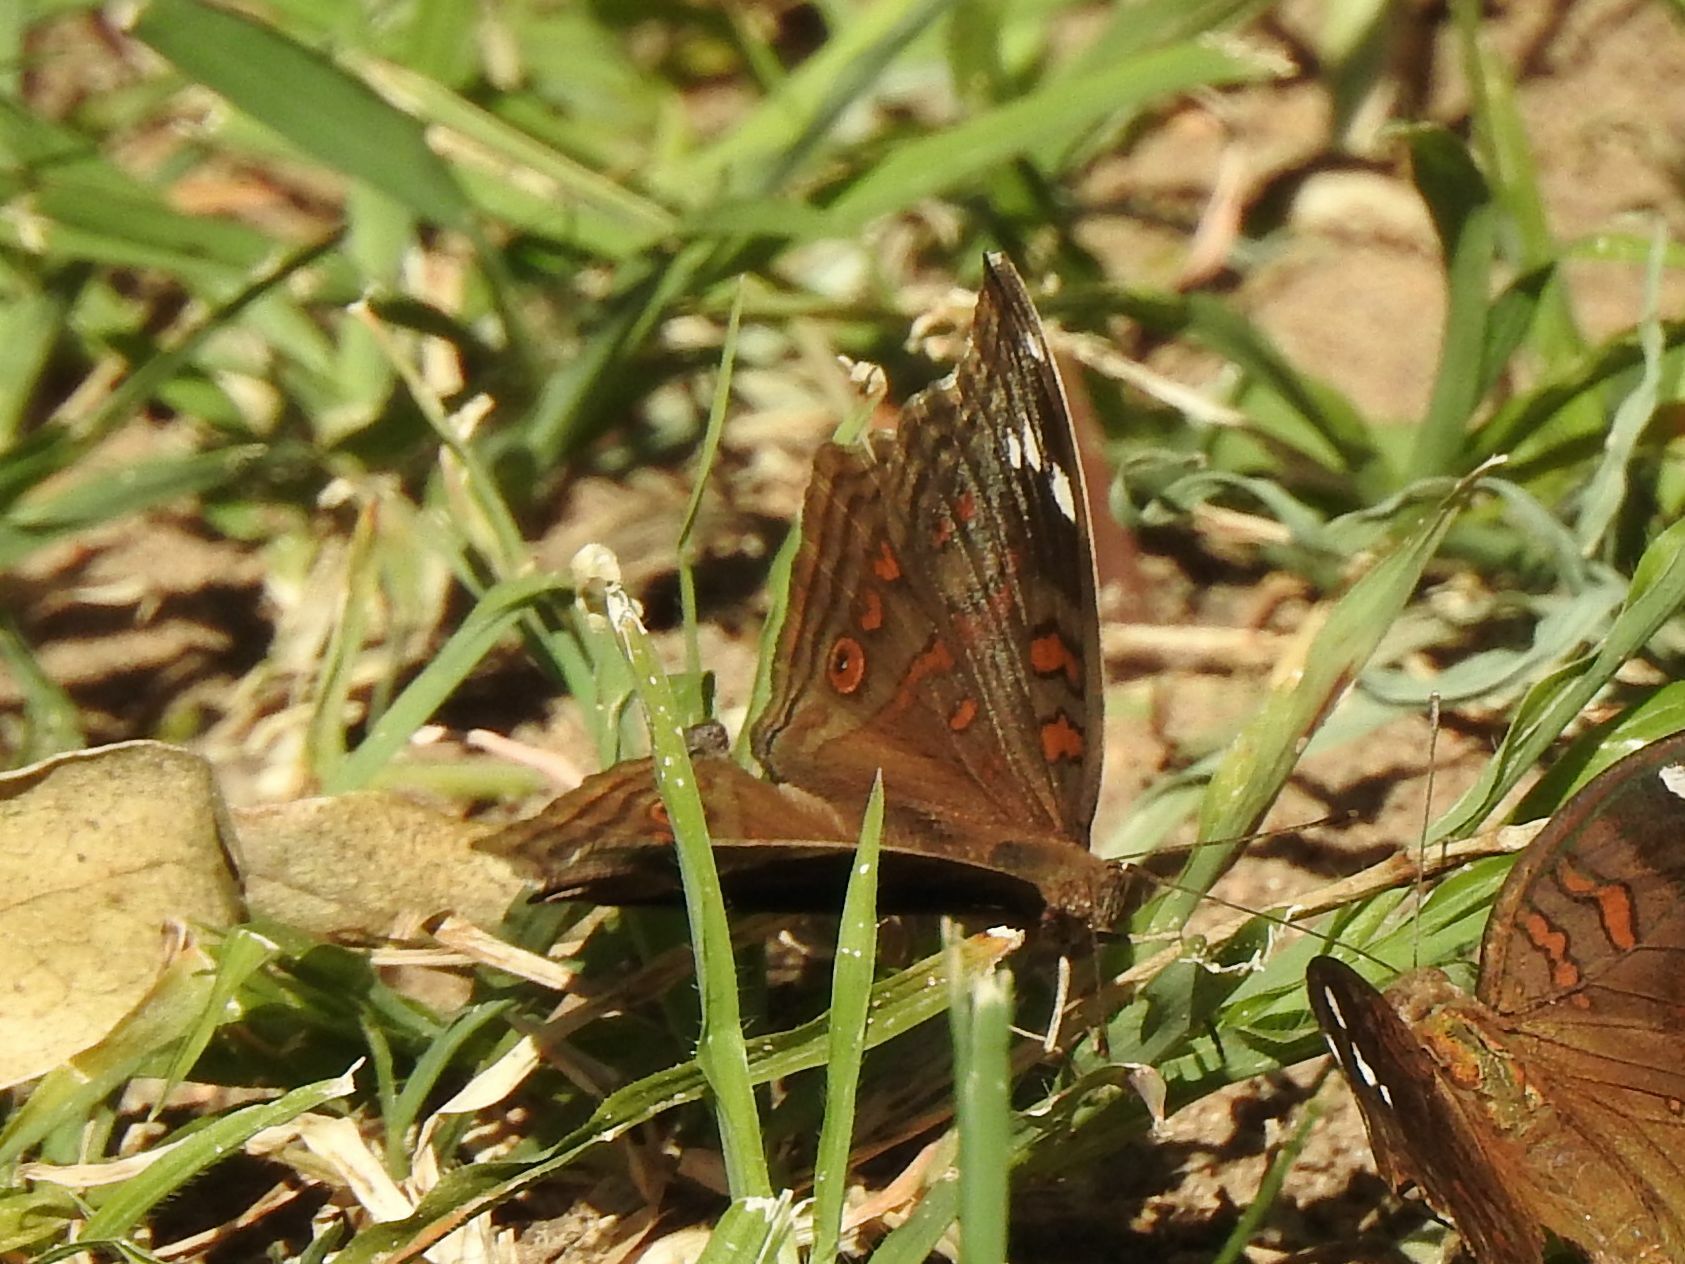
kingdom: Animalia
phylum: Arthropoda
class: Insecta
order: Lepidoptera
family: Nymphalidae
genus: Junonia
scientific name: Junonia natalica
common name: Brown pansy
